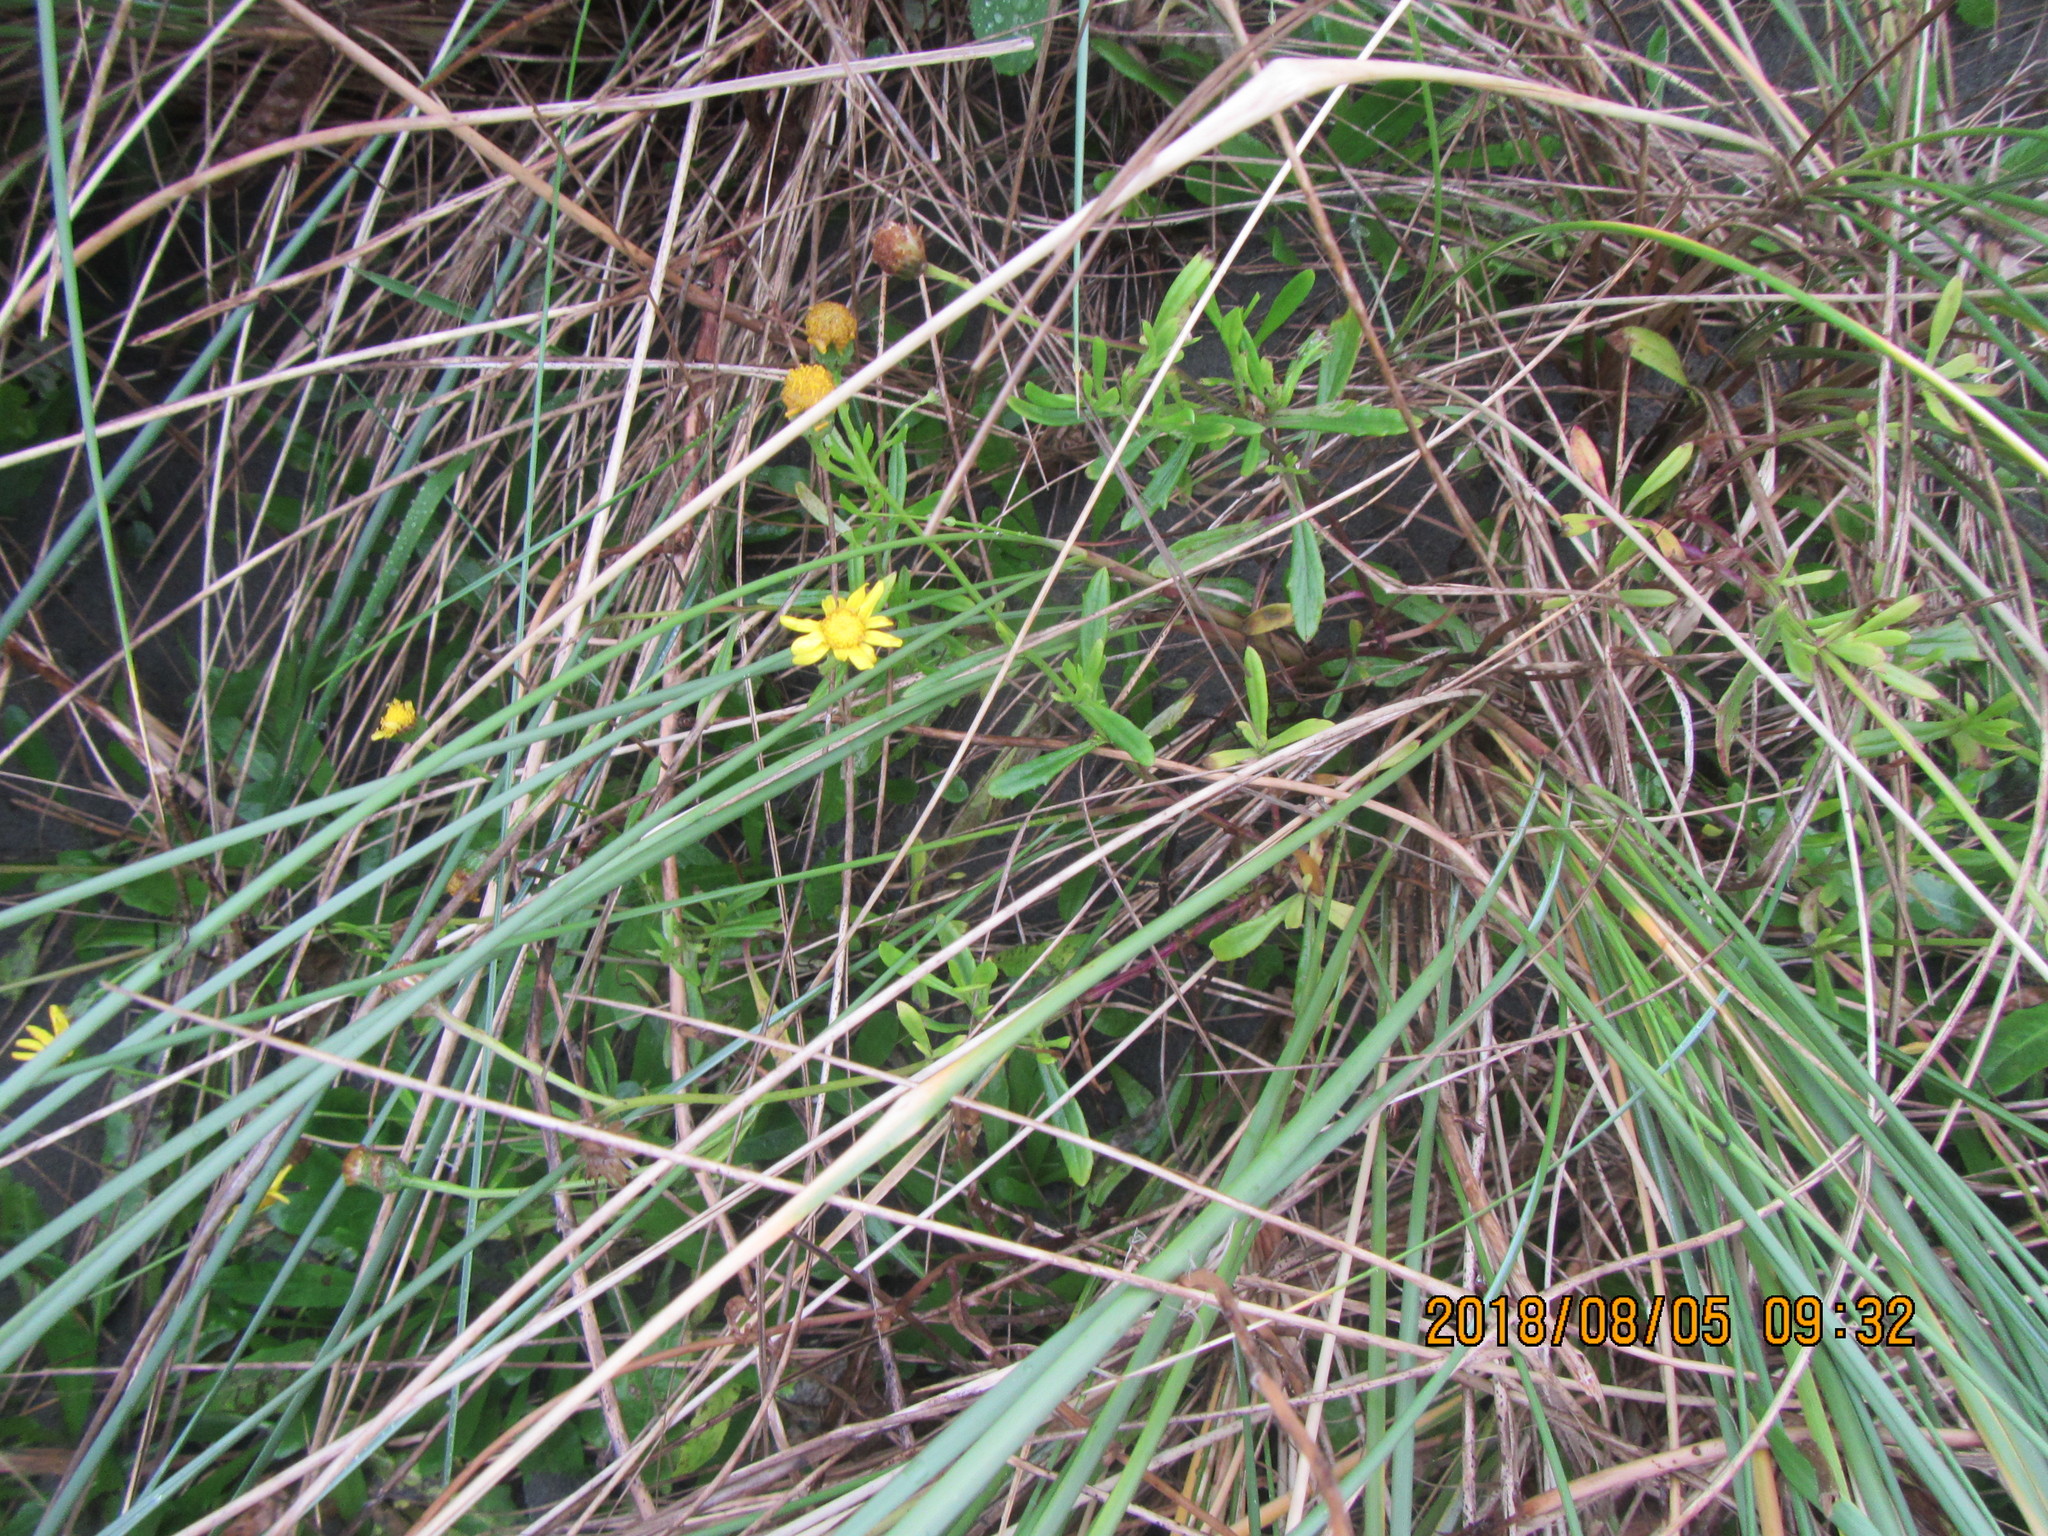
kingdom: Plantae
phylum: Tracheophyta
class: Magnoliopsida
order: Asterales
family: Asteraceae
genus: Senecio
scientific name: Senecio skirrhodon
